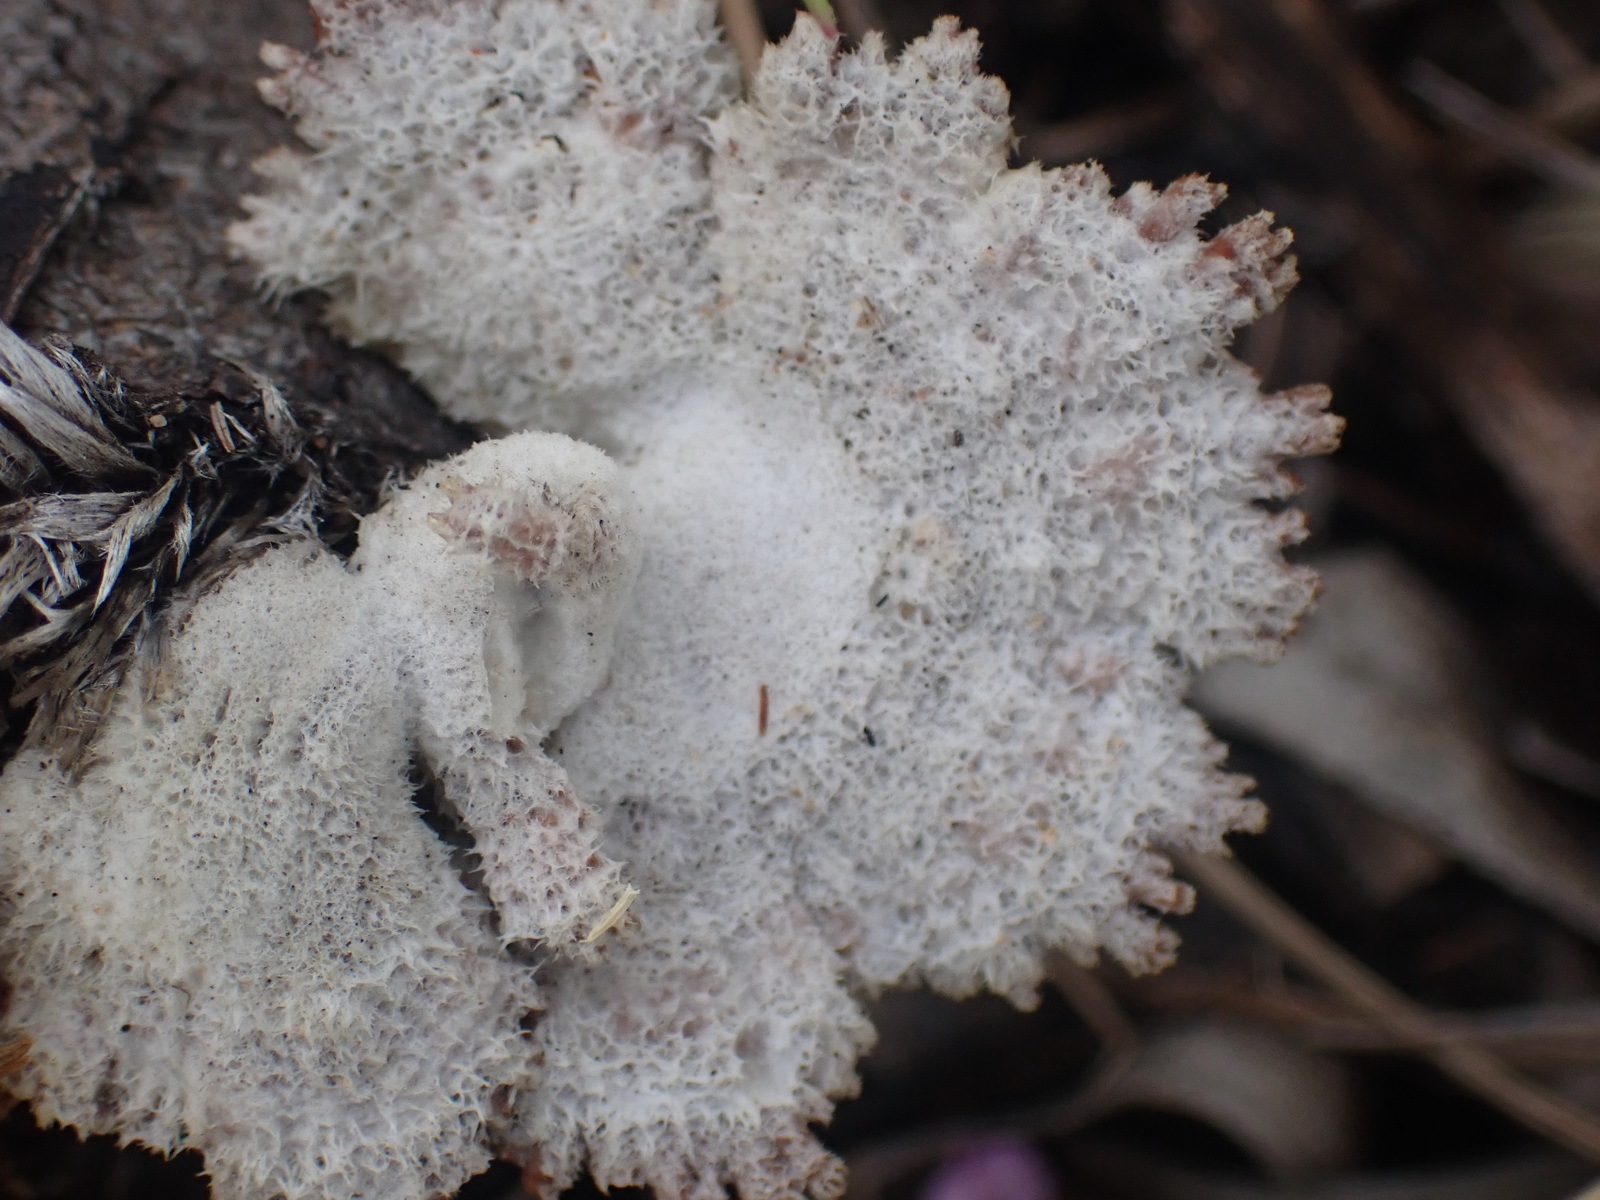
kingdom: Fungi
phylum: Basidiomycota
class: Agaricomycetes
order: Agaricales
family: Schizophyllaceae
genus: Schizophyllum
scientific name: Schizophyllum commune
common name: Common porecrust
